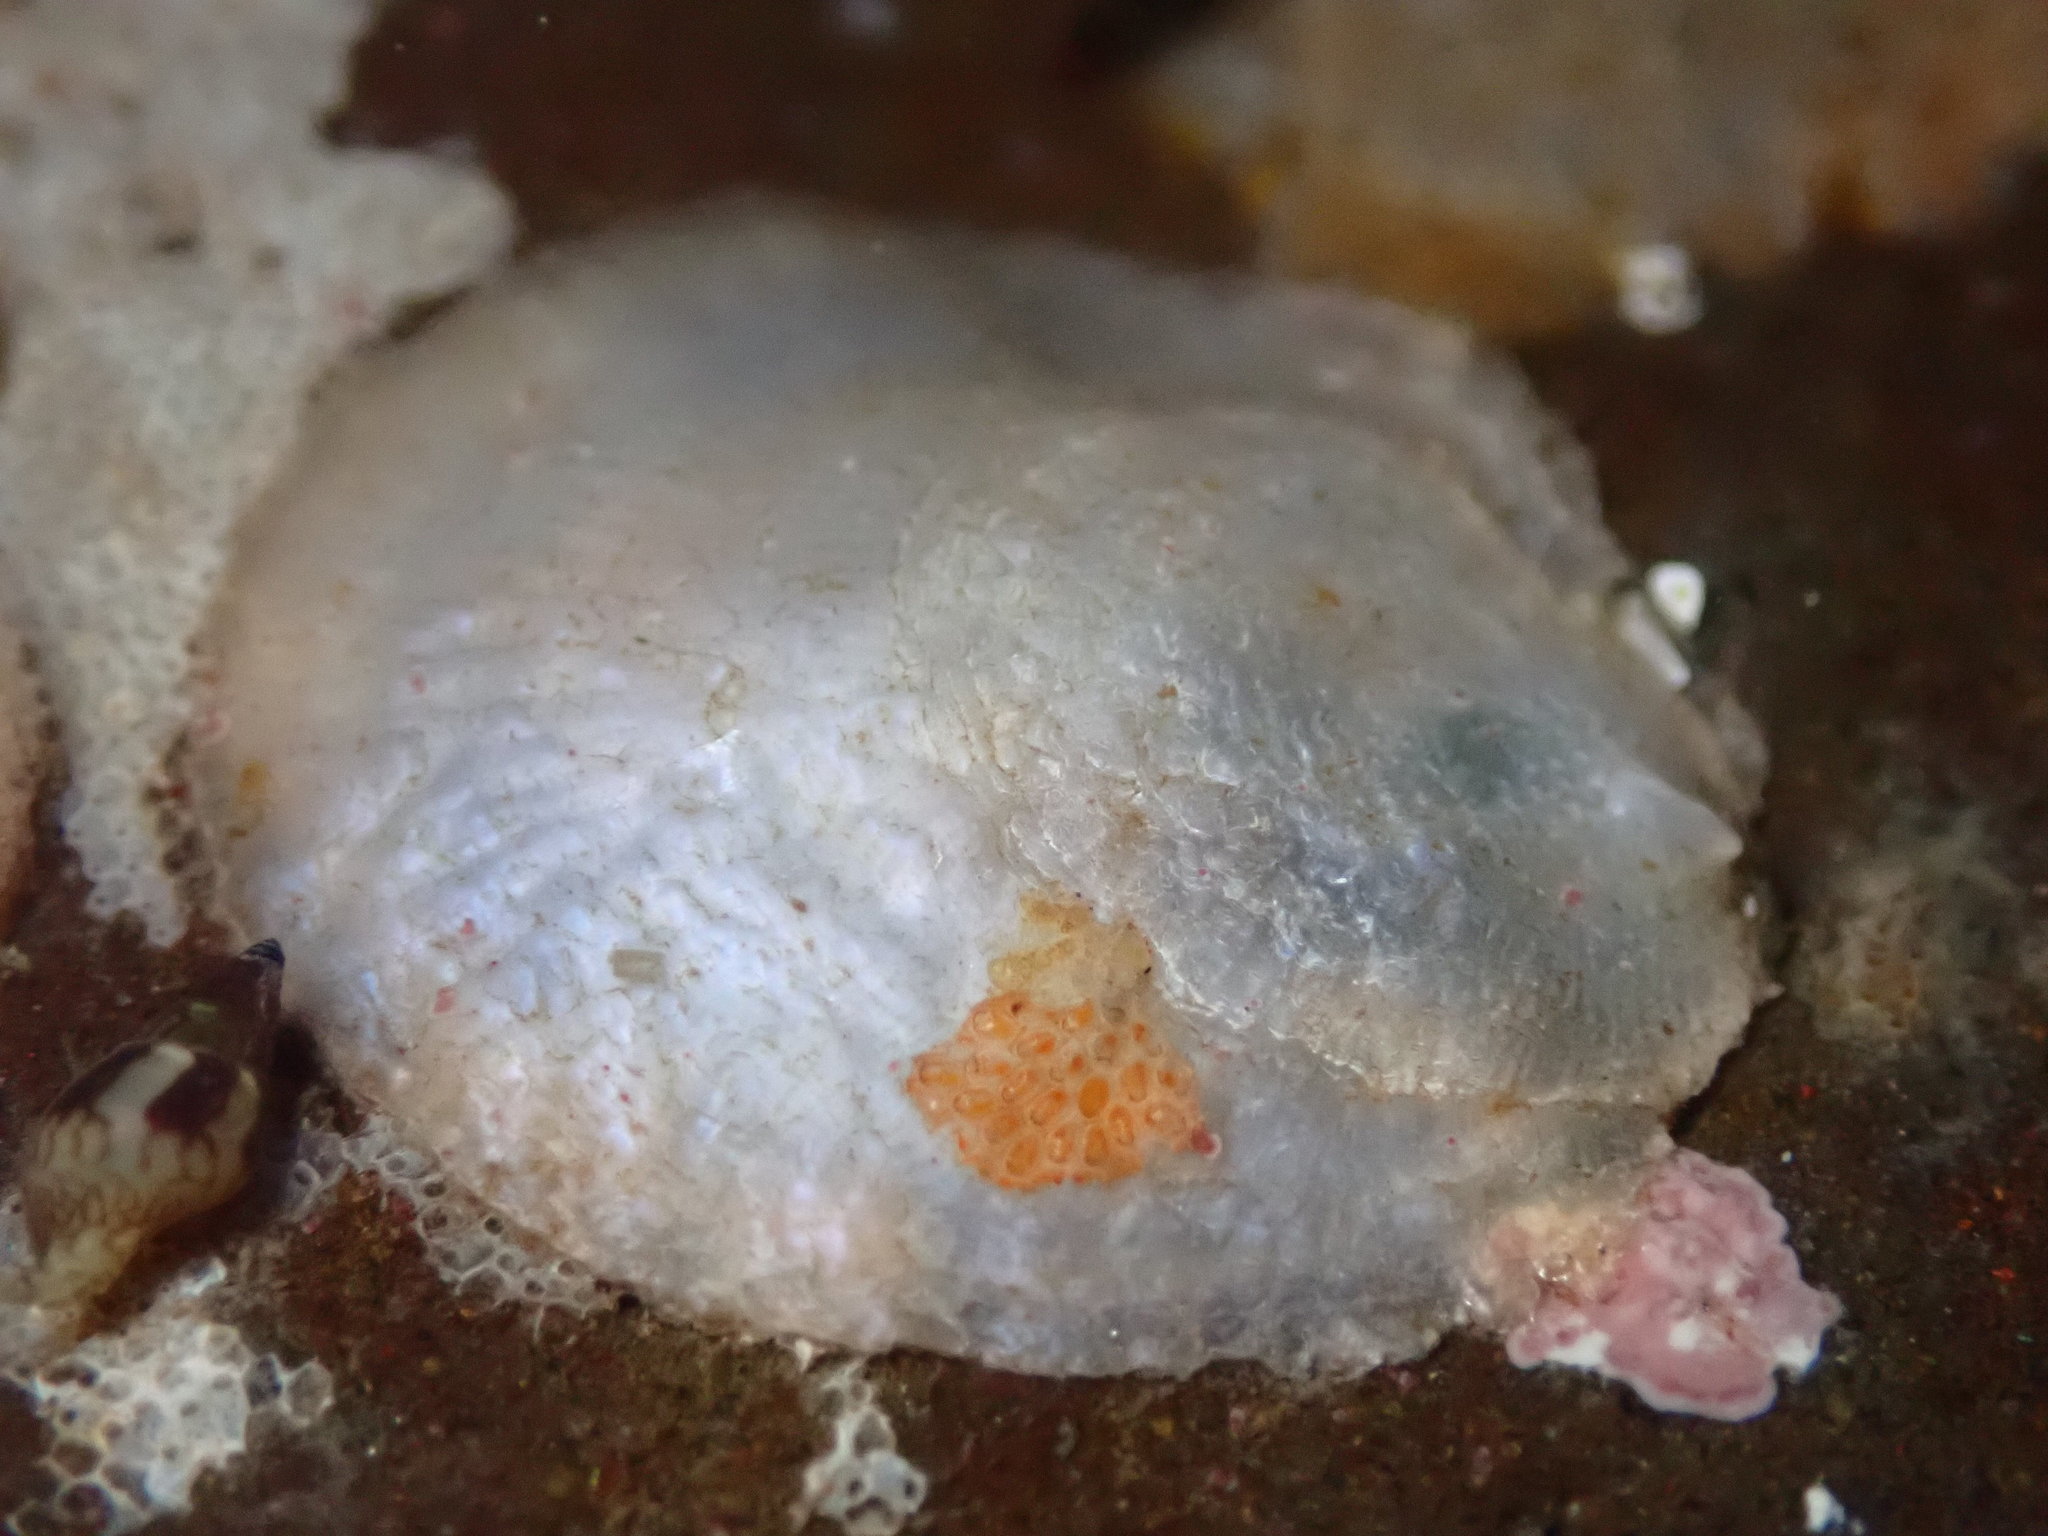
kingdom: Animalia
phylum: Mollusca
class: Bivalvia
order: Pectinida
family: Anomiidae
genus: Pododesmus
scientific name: Pododesmus macrochisma
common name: Alaska jingle
